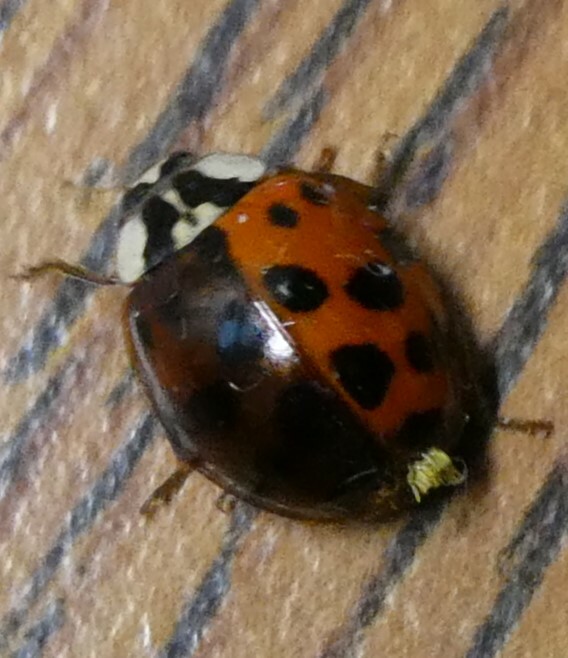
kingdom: Animalia
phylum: Arthropoda
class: Insecta
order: Coleoptera
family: Coccinellidae
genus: Harmonia
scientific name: Harmonia axyridis
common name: Harlequin ladybird
